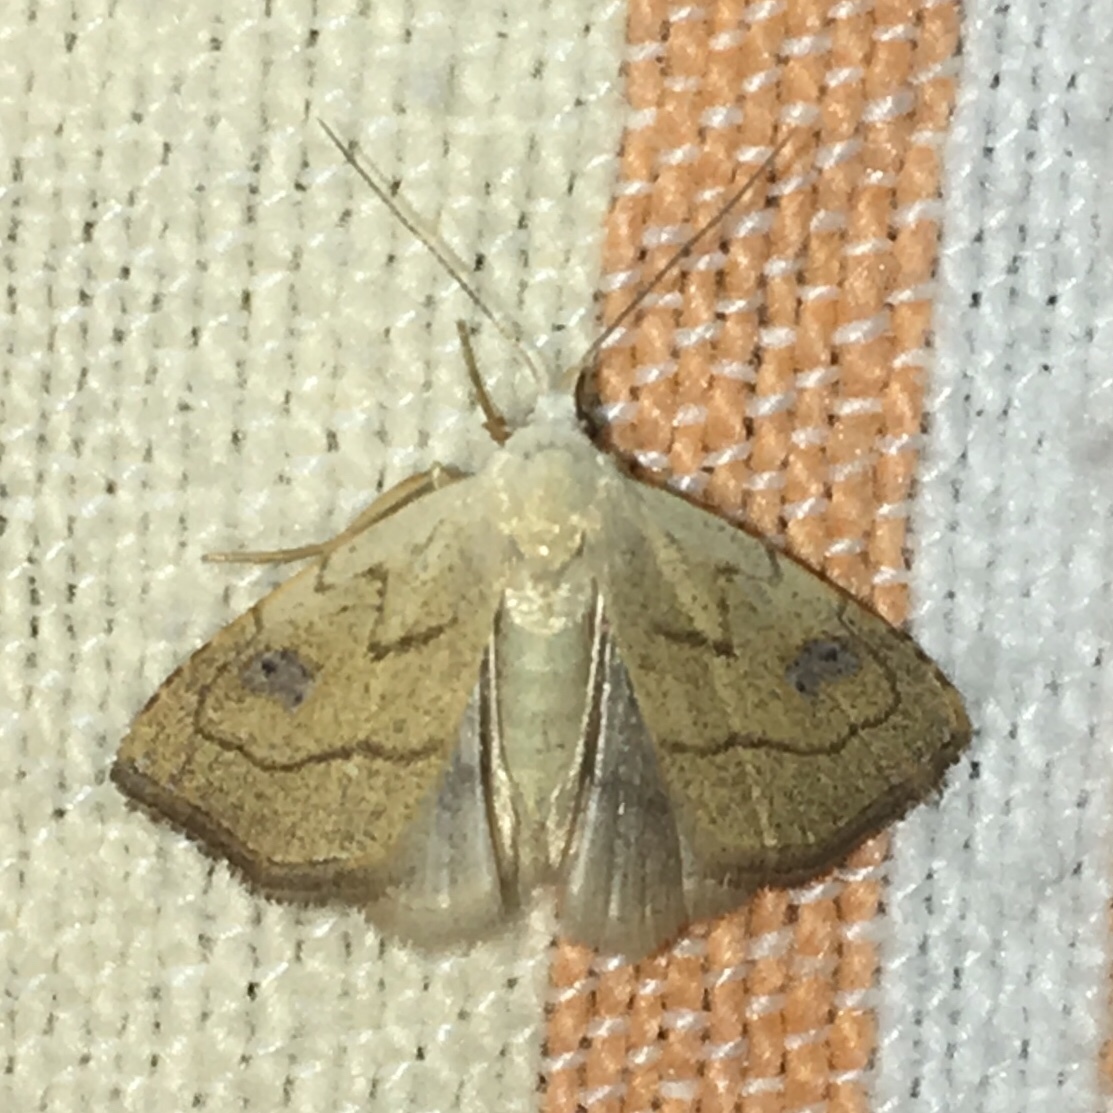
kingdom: Animalia
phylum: Arthropoda
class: Insecta
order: Lepidoptera
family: Erebidae
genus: Rivula
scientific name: Rivula propinqualis
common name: Spotted grass moth
